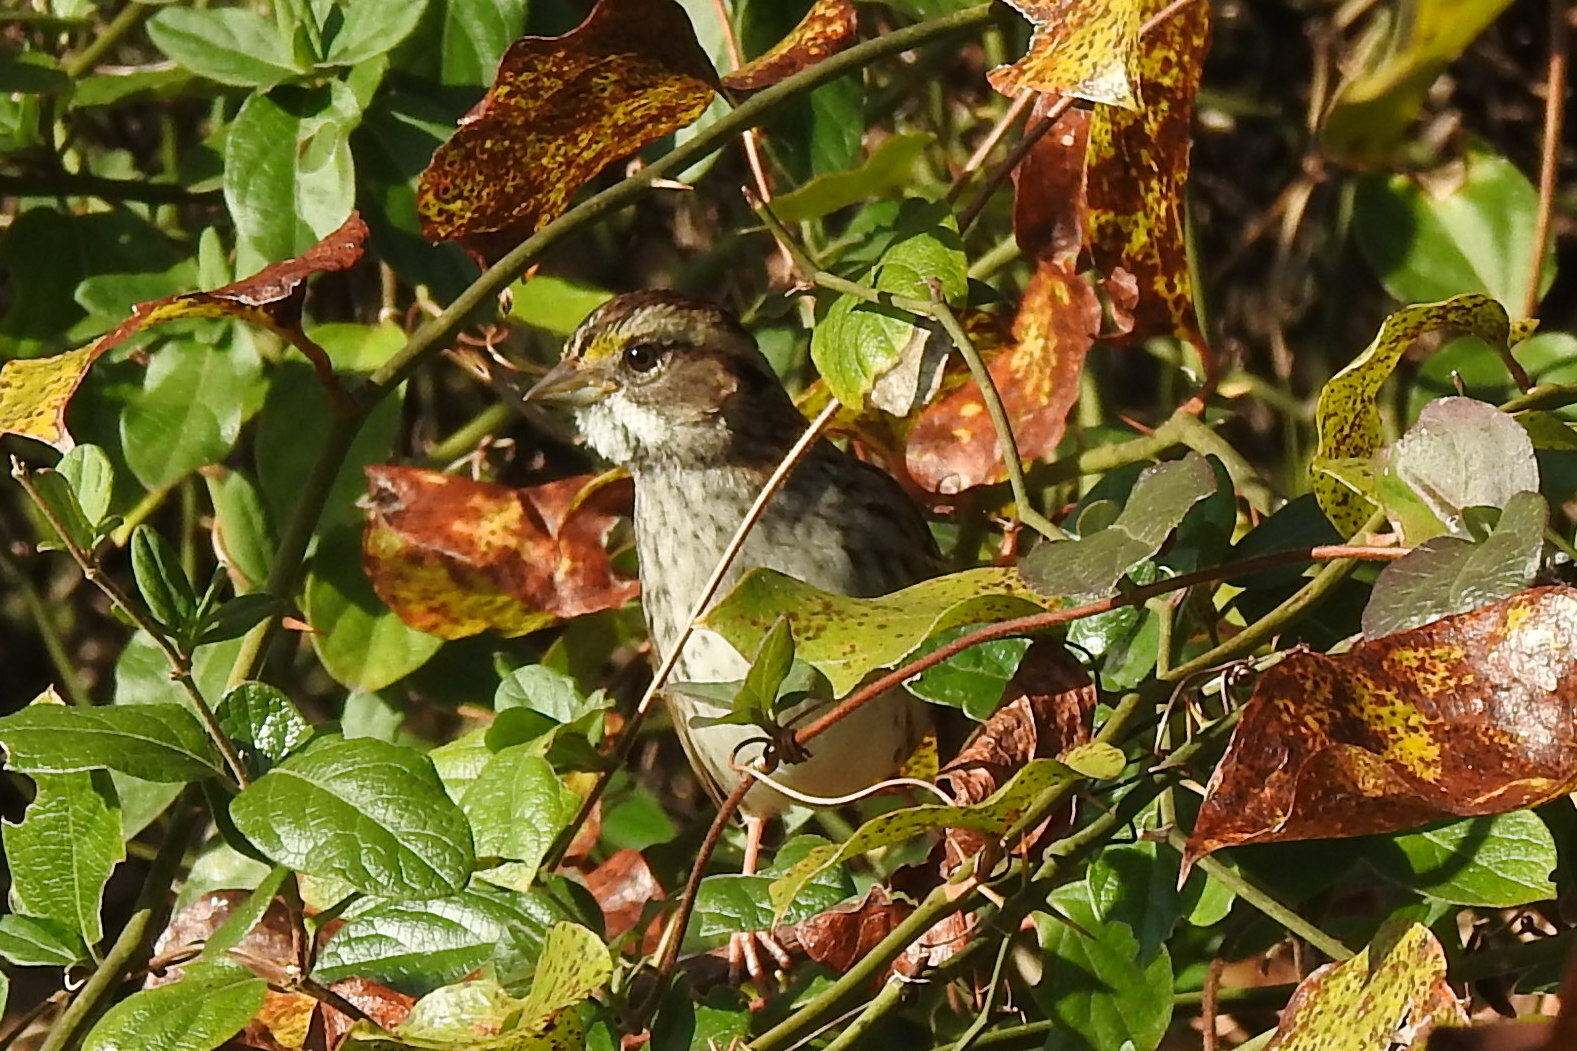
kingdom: Animalia
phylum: Chordata
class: Aves
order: Passeriformes
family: Passerellidae
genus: Zonotrichia
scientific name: Zonotrichia albicollis
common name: White-throated sparrow
